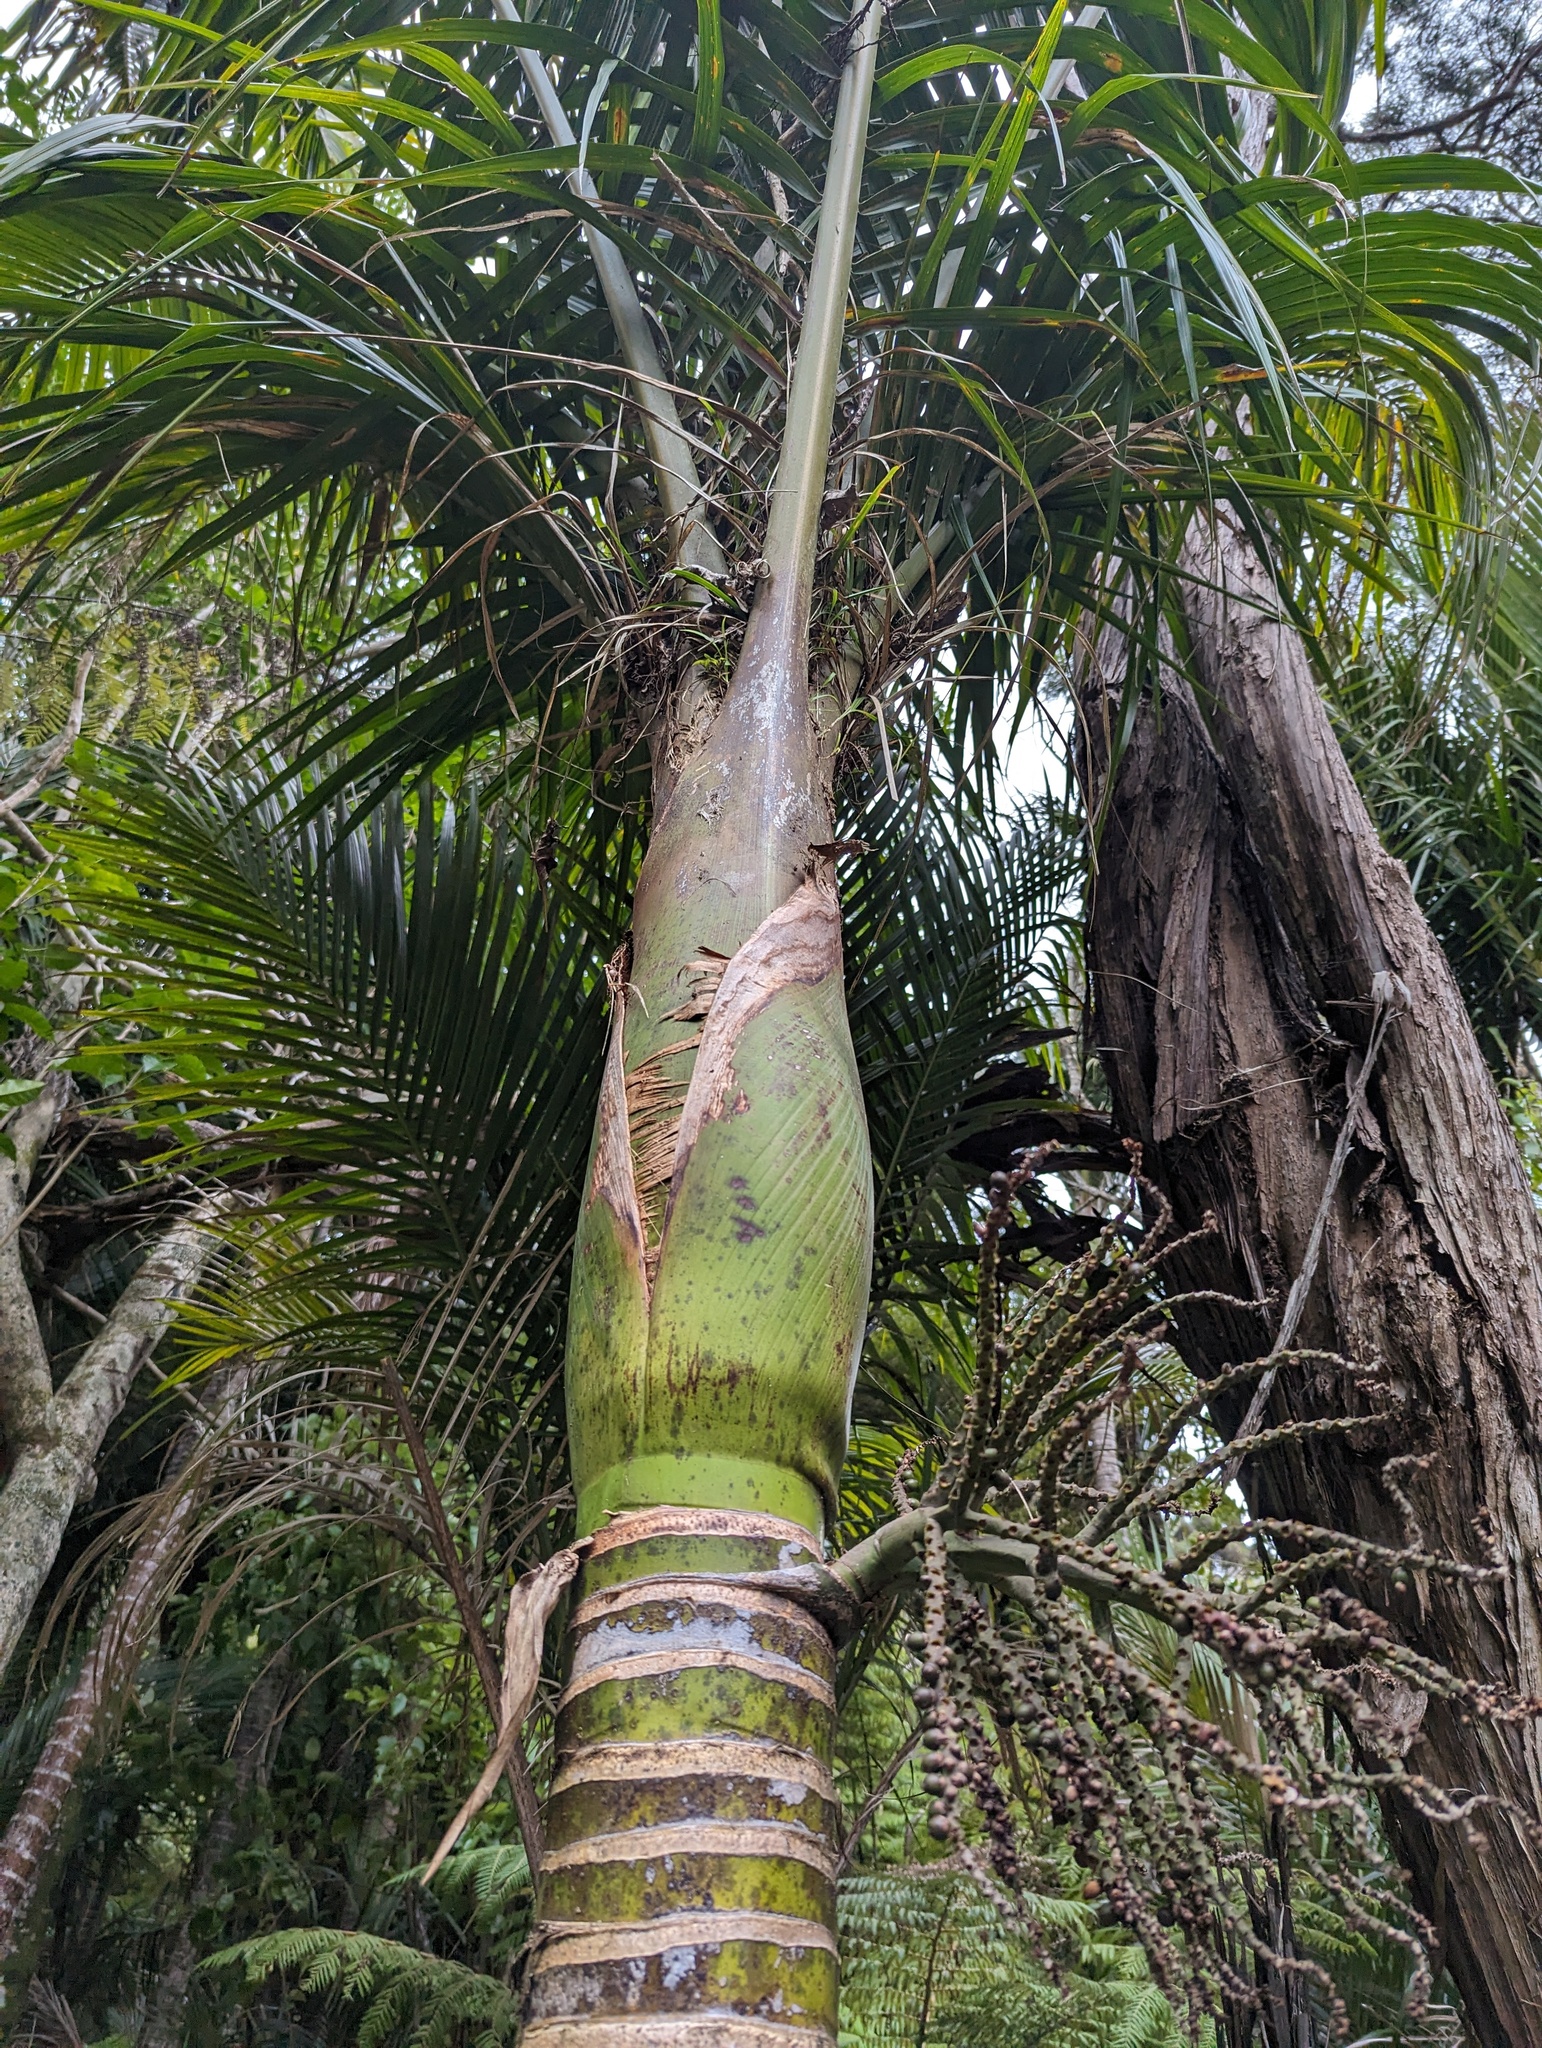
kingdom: Plantae
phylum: Tracheophyta
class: Liliopsida
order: Arecales
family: Arecaceae
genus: Rhopalostylis
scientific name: Rhopalostylis sapida
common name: Feather-duster palm
